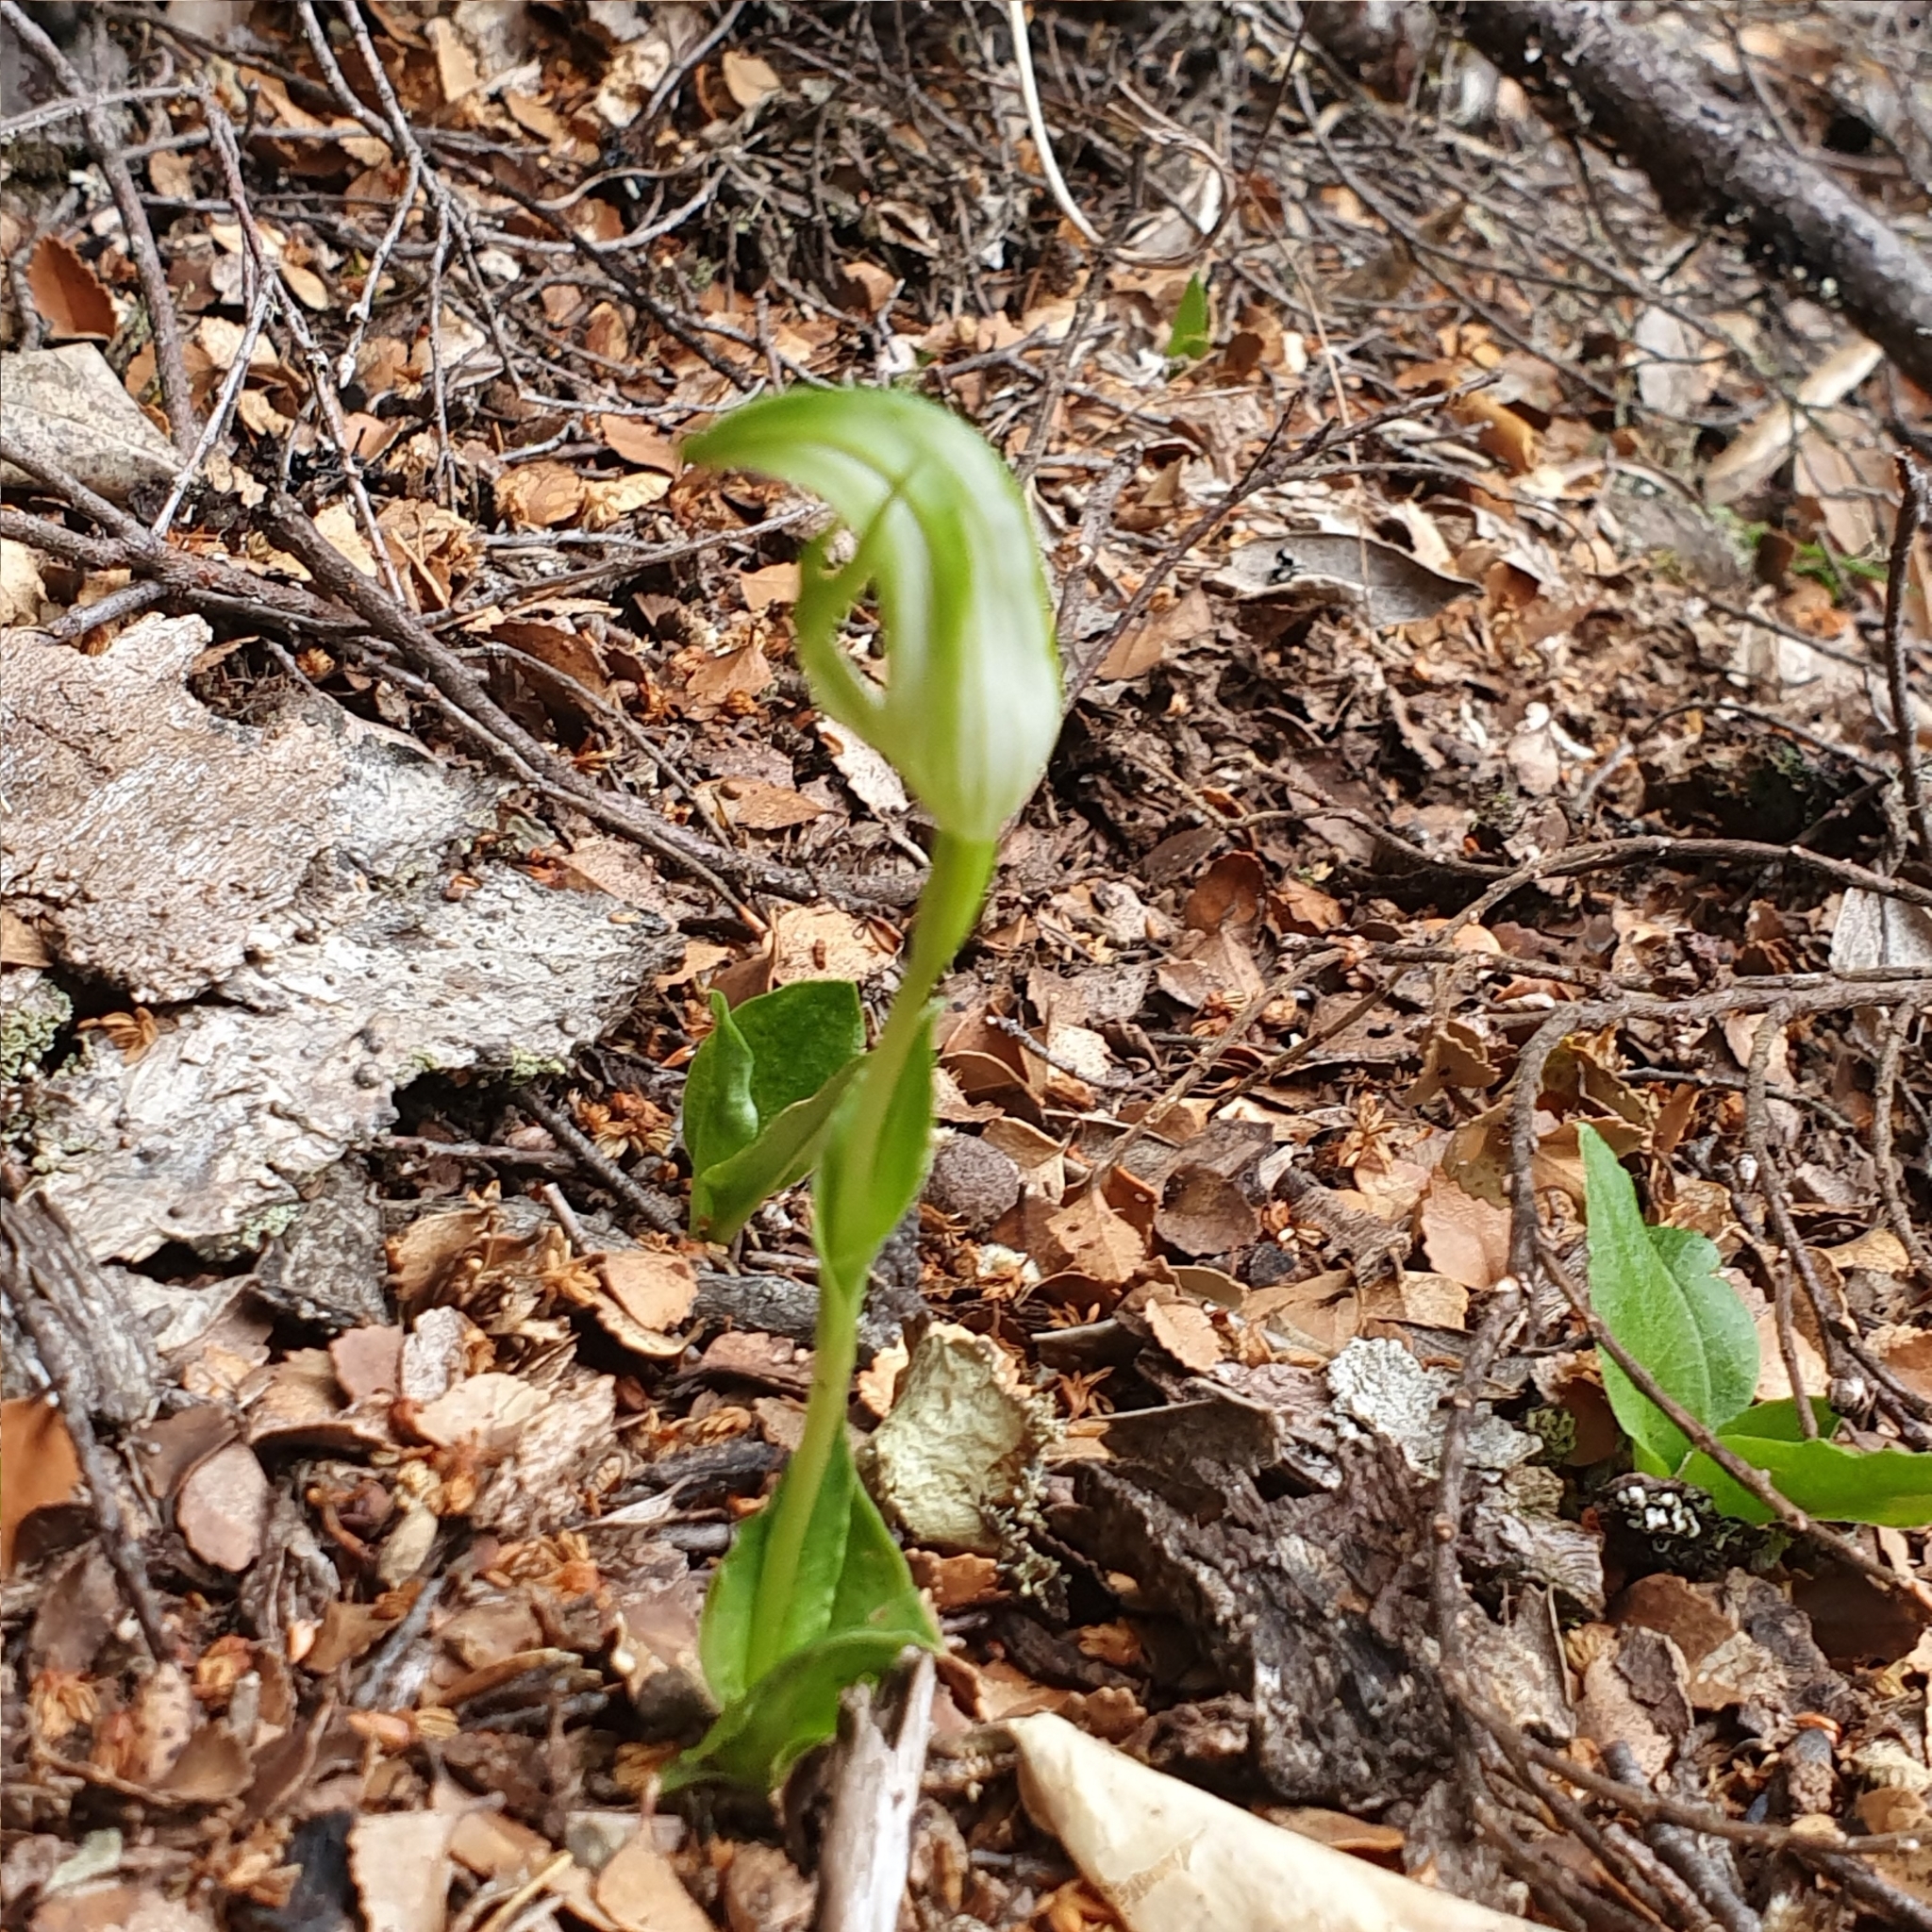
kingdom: Plantae
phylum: Tracheophyta
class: Liliopsida
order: Asparagales
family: Orchidaceae
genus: Pterostylis
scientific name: Pterostylis scabrida
